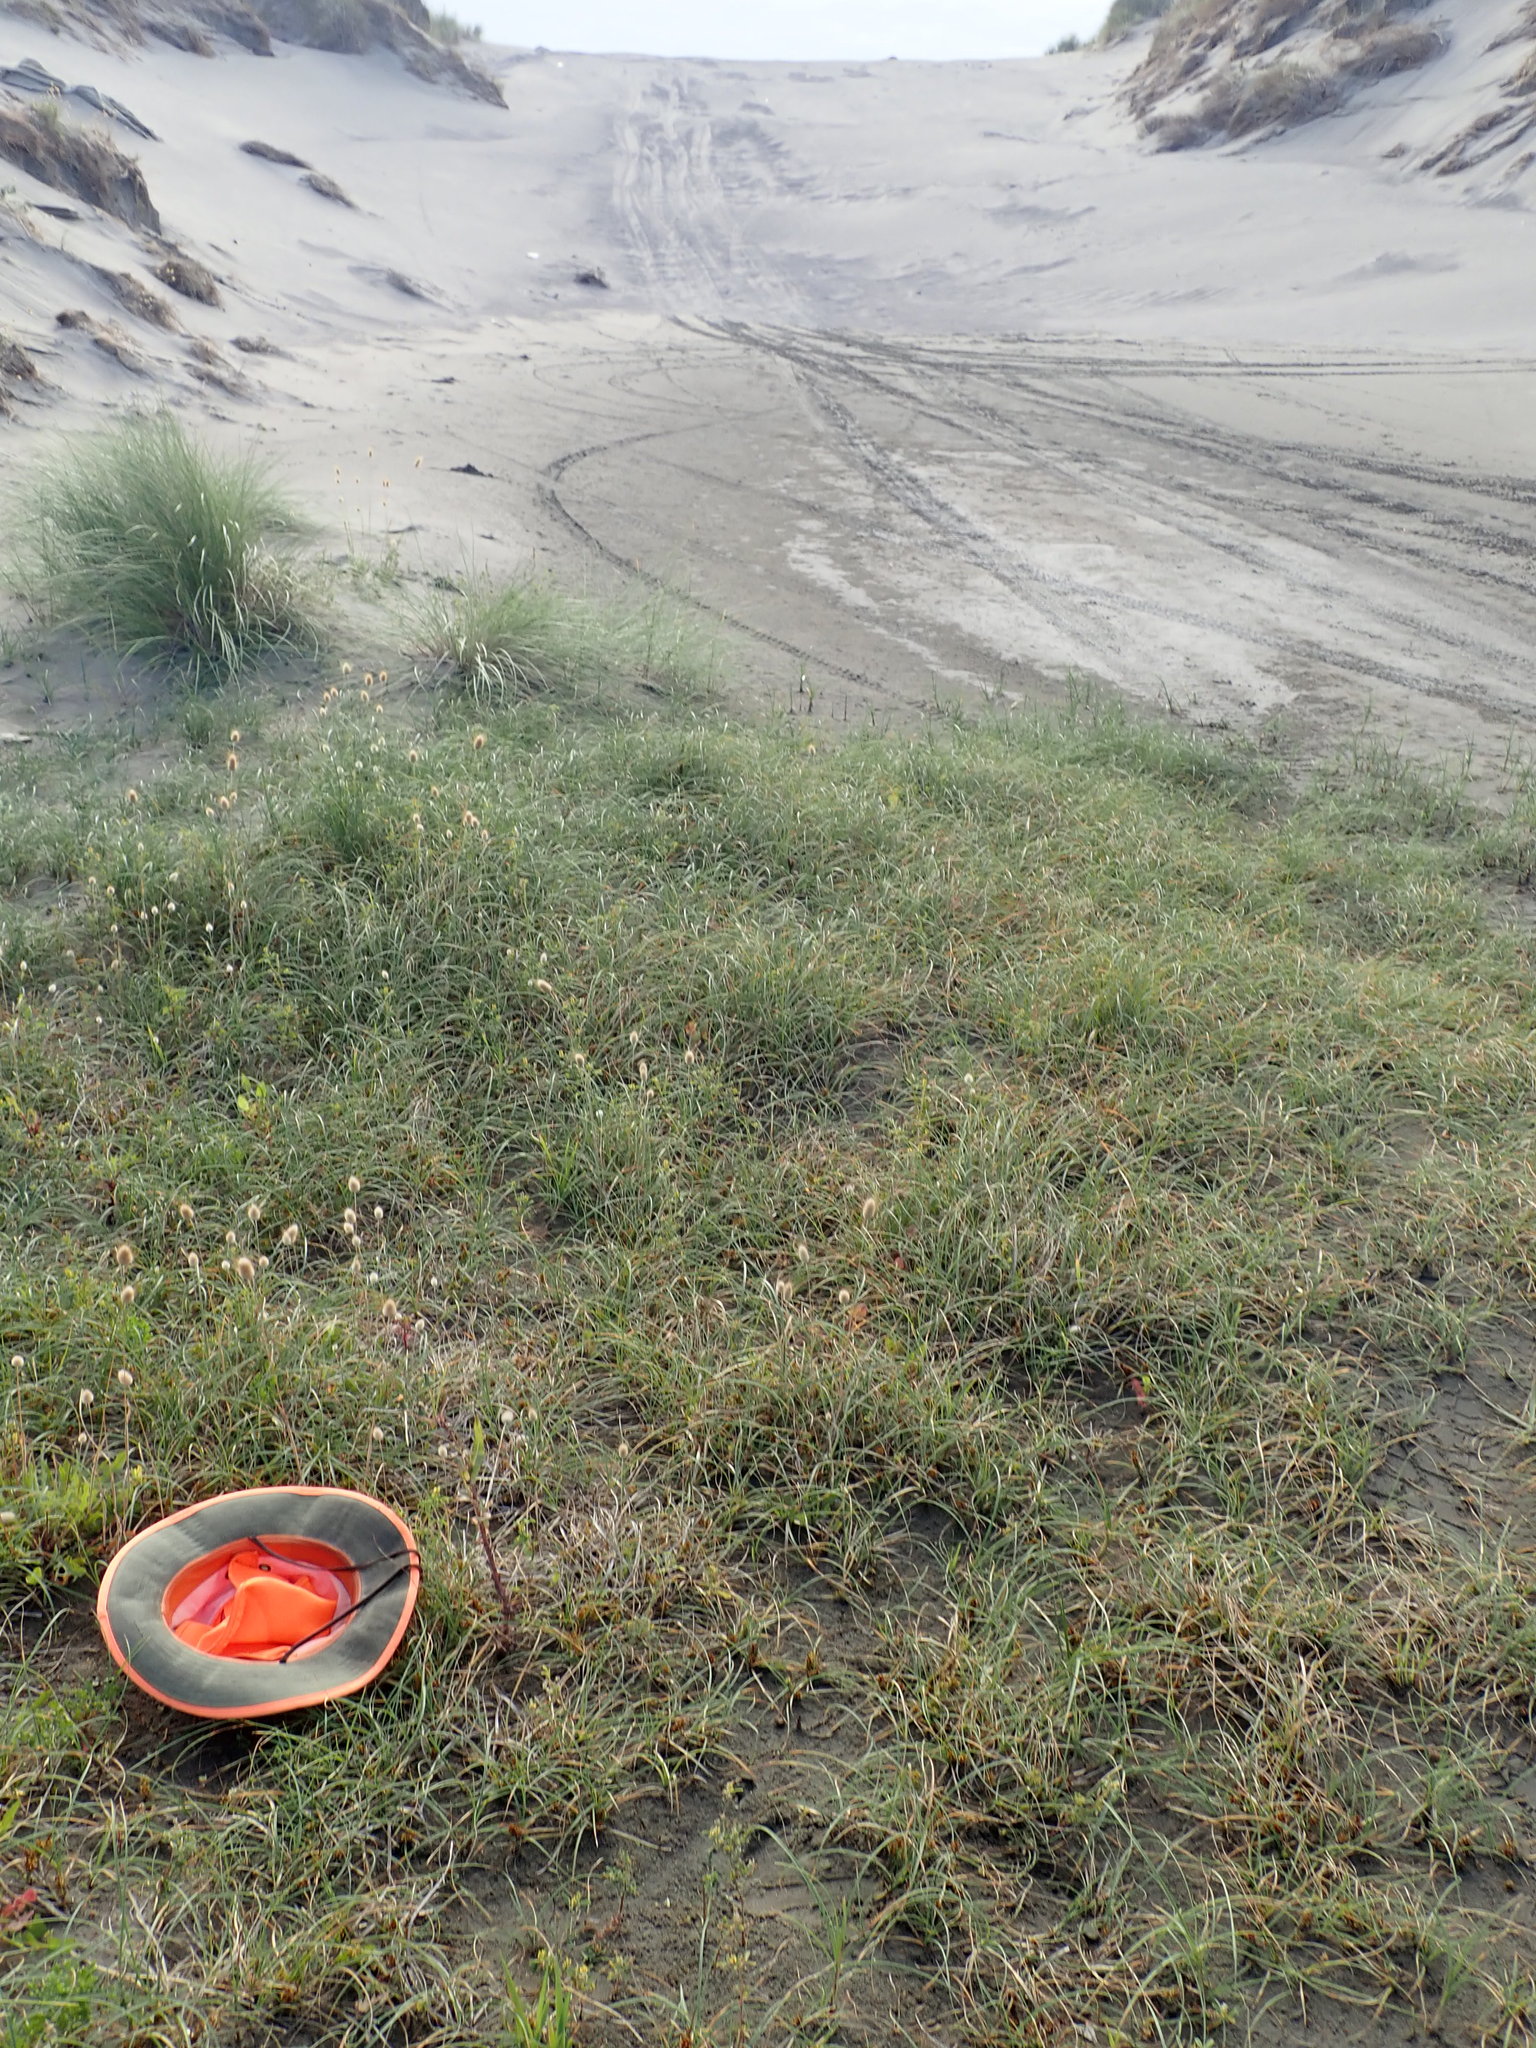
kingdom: Plantae
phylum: Tracheophyta
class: Magnoliopsida
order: Asterales
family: Campanulaceae
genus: Lobelia
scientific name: Lobelia anceps
